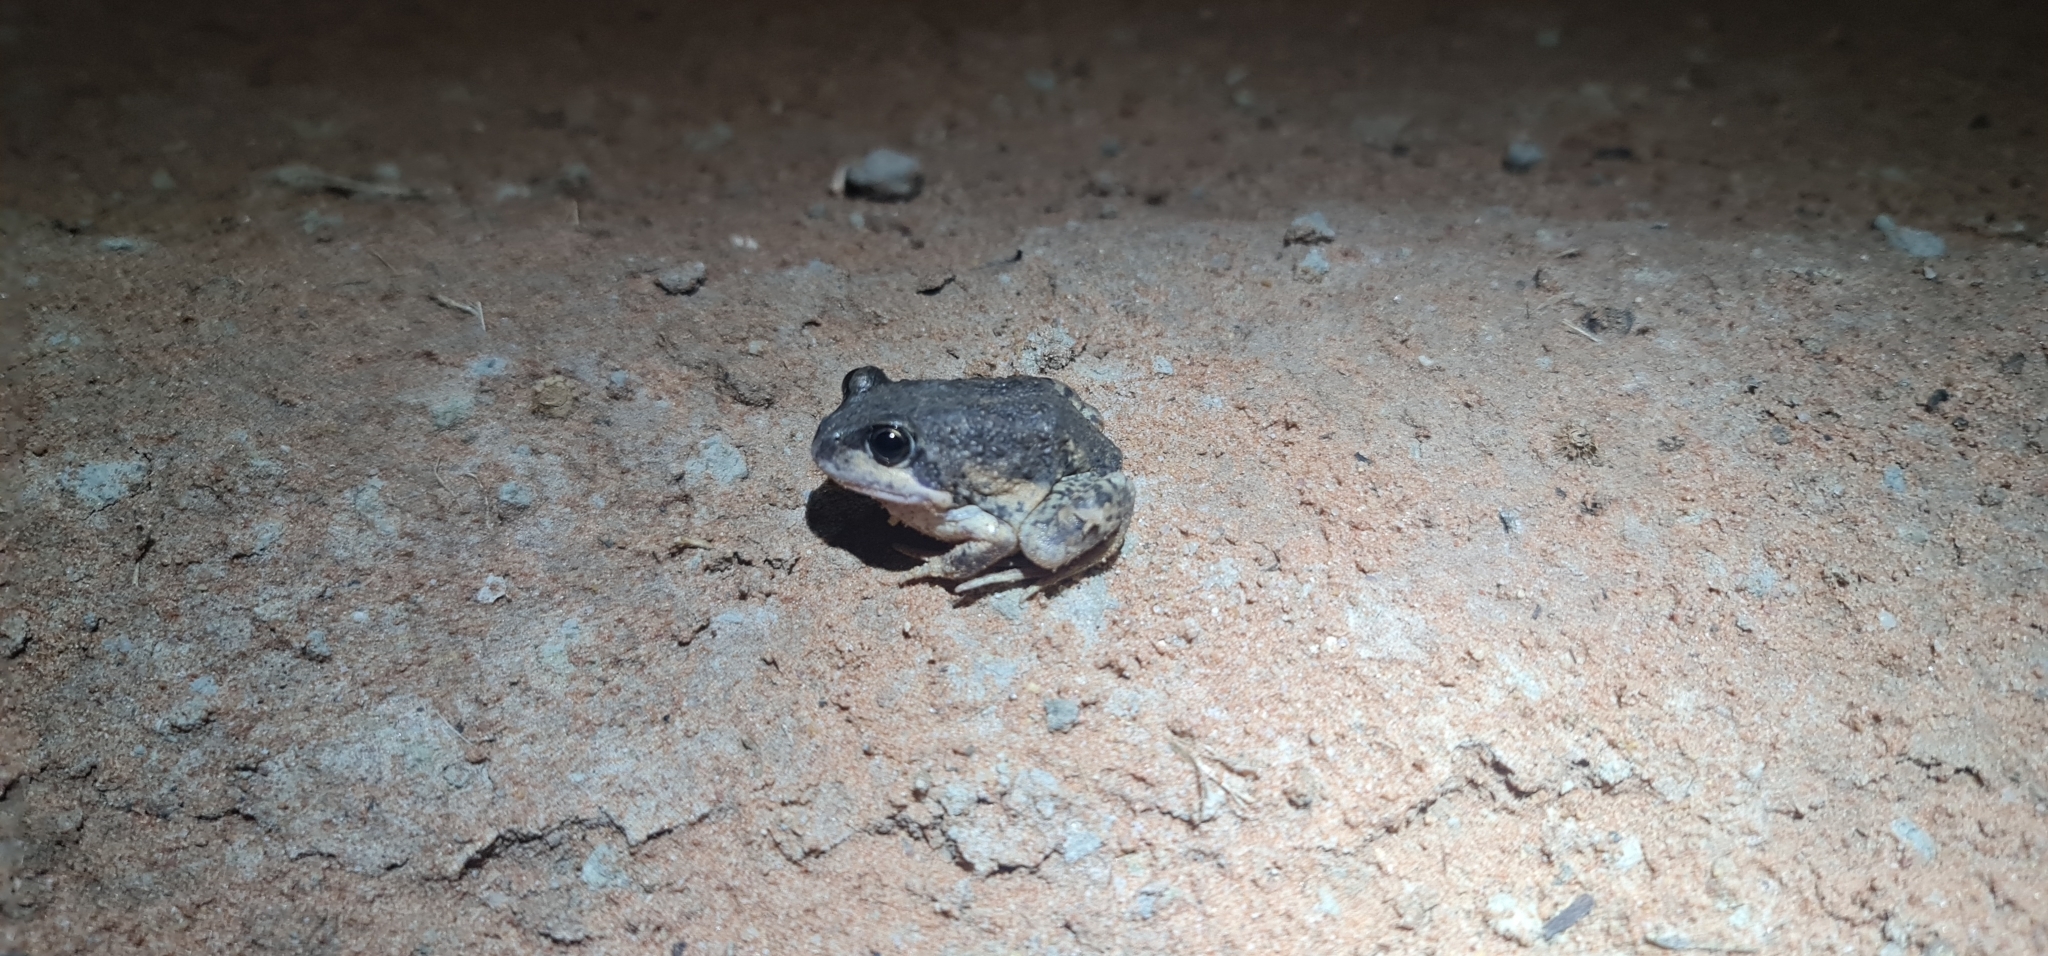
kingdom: Animalia
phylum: Chordata
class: Amphibia
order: Anura
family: Limnodynastidae
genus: Limnodynastes
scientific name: Limnodynastes dumerilii
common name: Banjo frog
